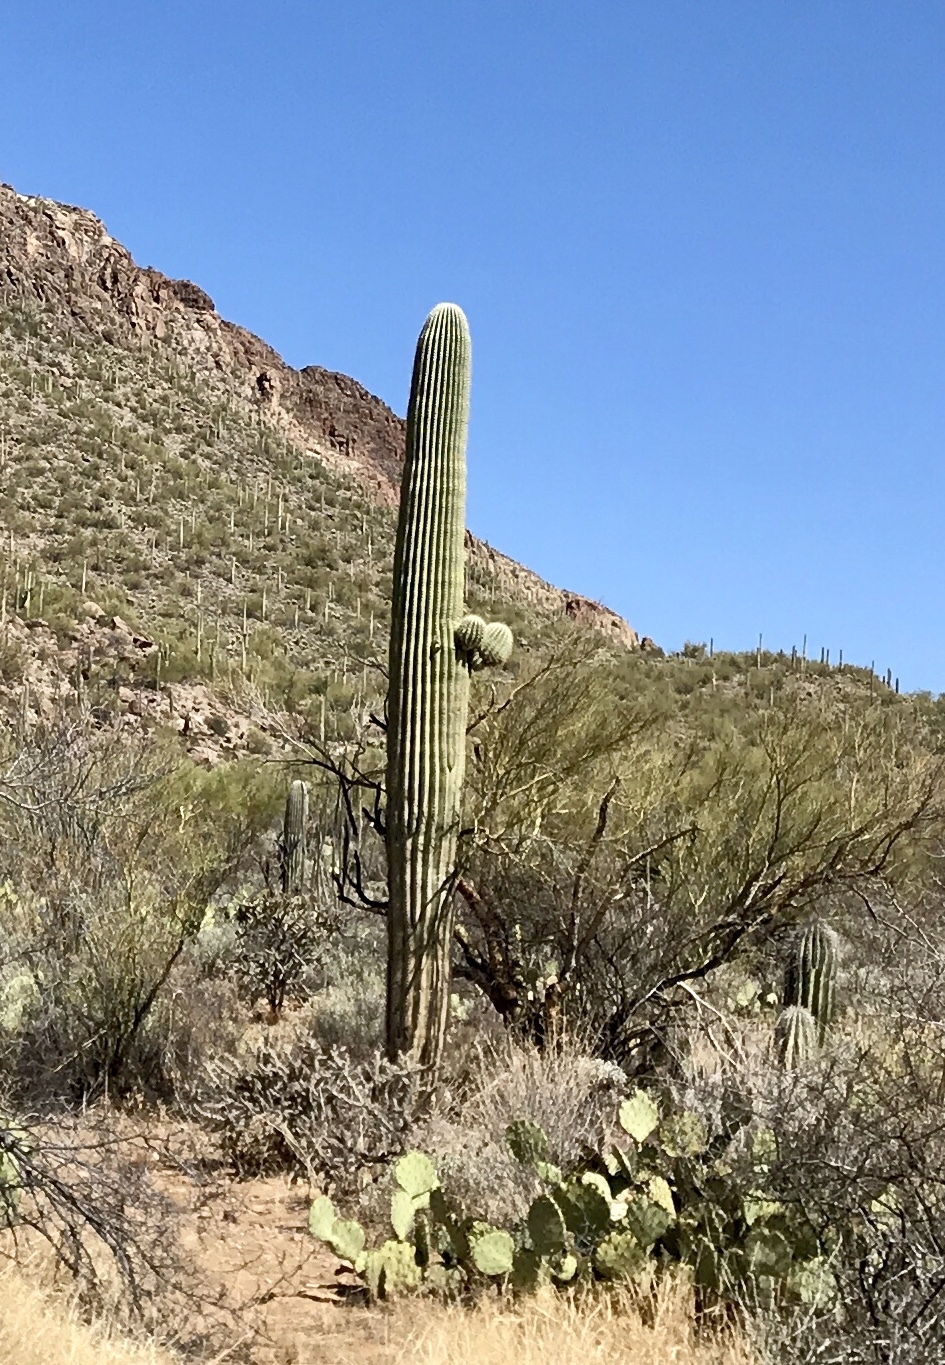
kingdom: Plantae
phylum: Tracheophyta
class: Magnoliopsida
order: Caryophyllales
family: Cactaceae
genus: Carnegiea
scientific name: Carnegiea gigantea
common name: Saguaro
